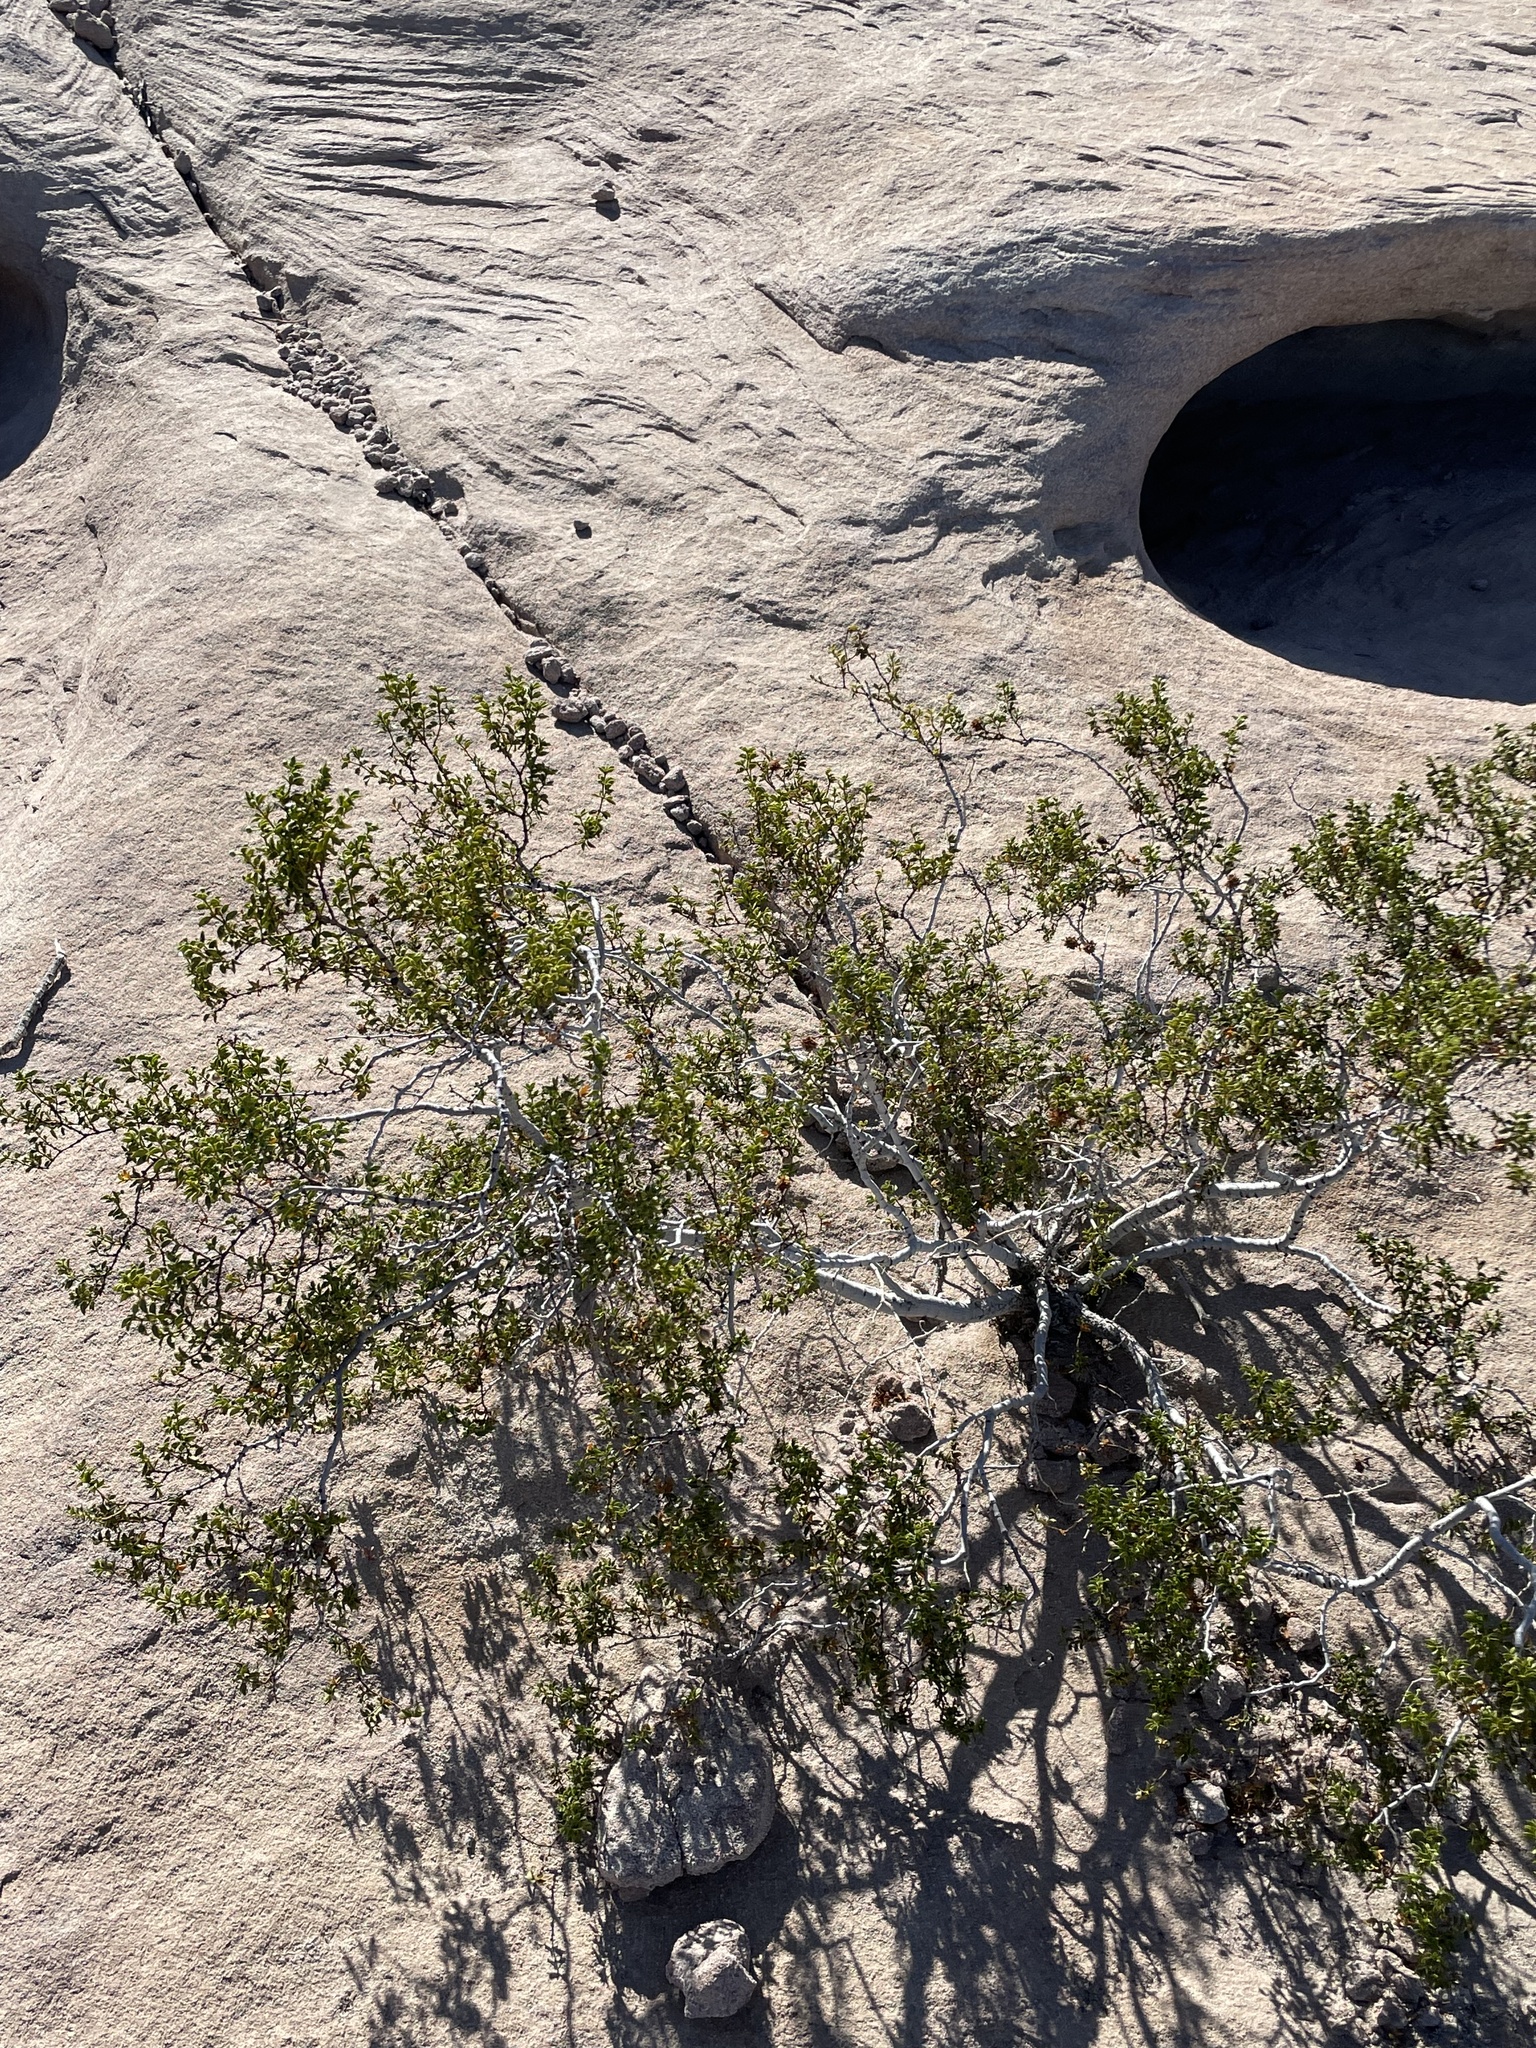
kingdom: Plantae
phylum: Tracheophyta
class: Magnoliopsida
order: Zygophyllales
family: Zygophyllaceae
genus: Larrea
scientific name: Larrea tridentata
